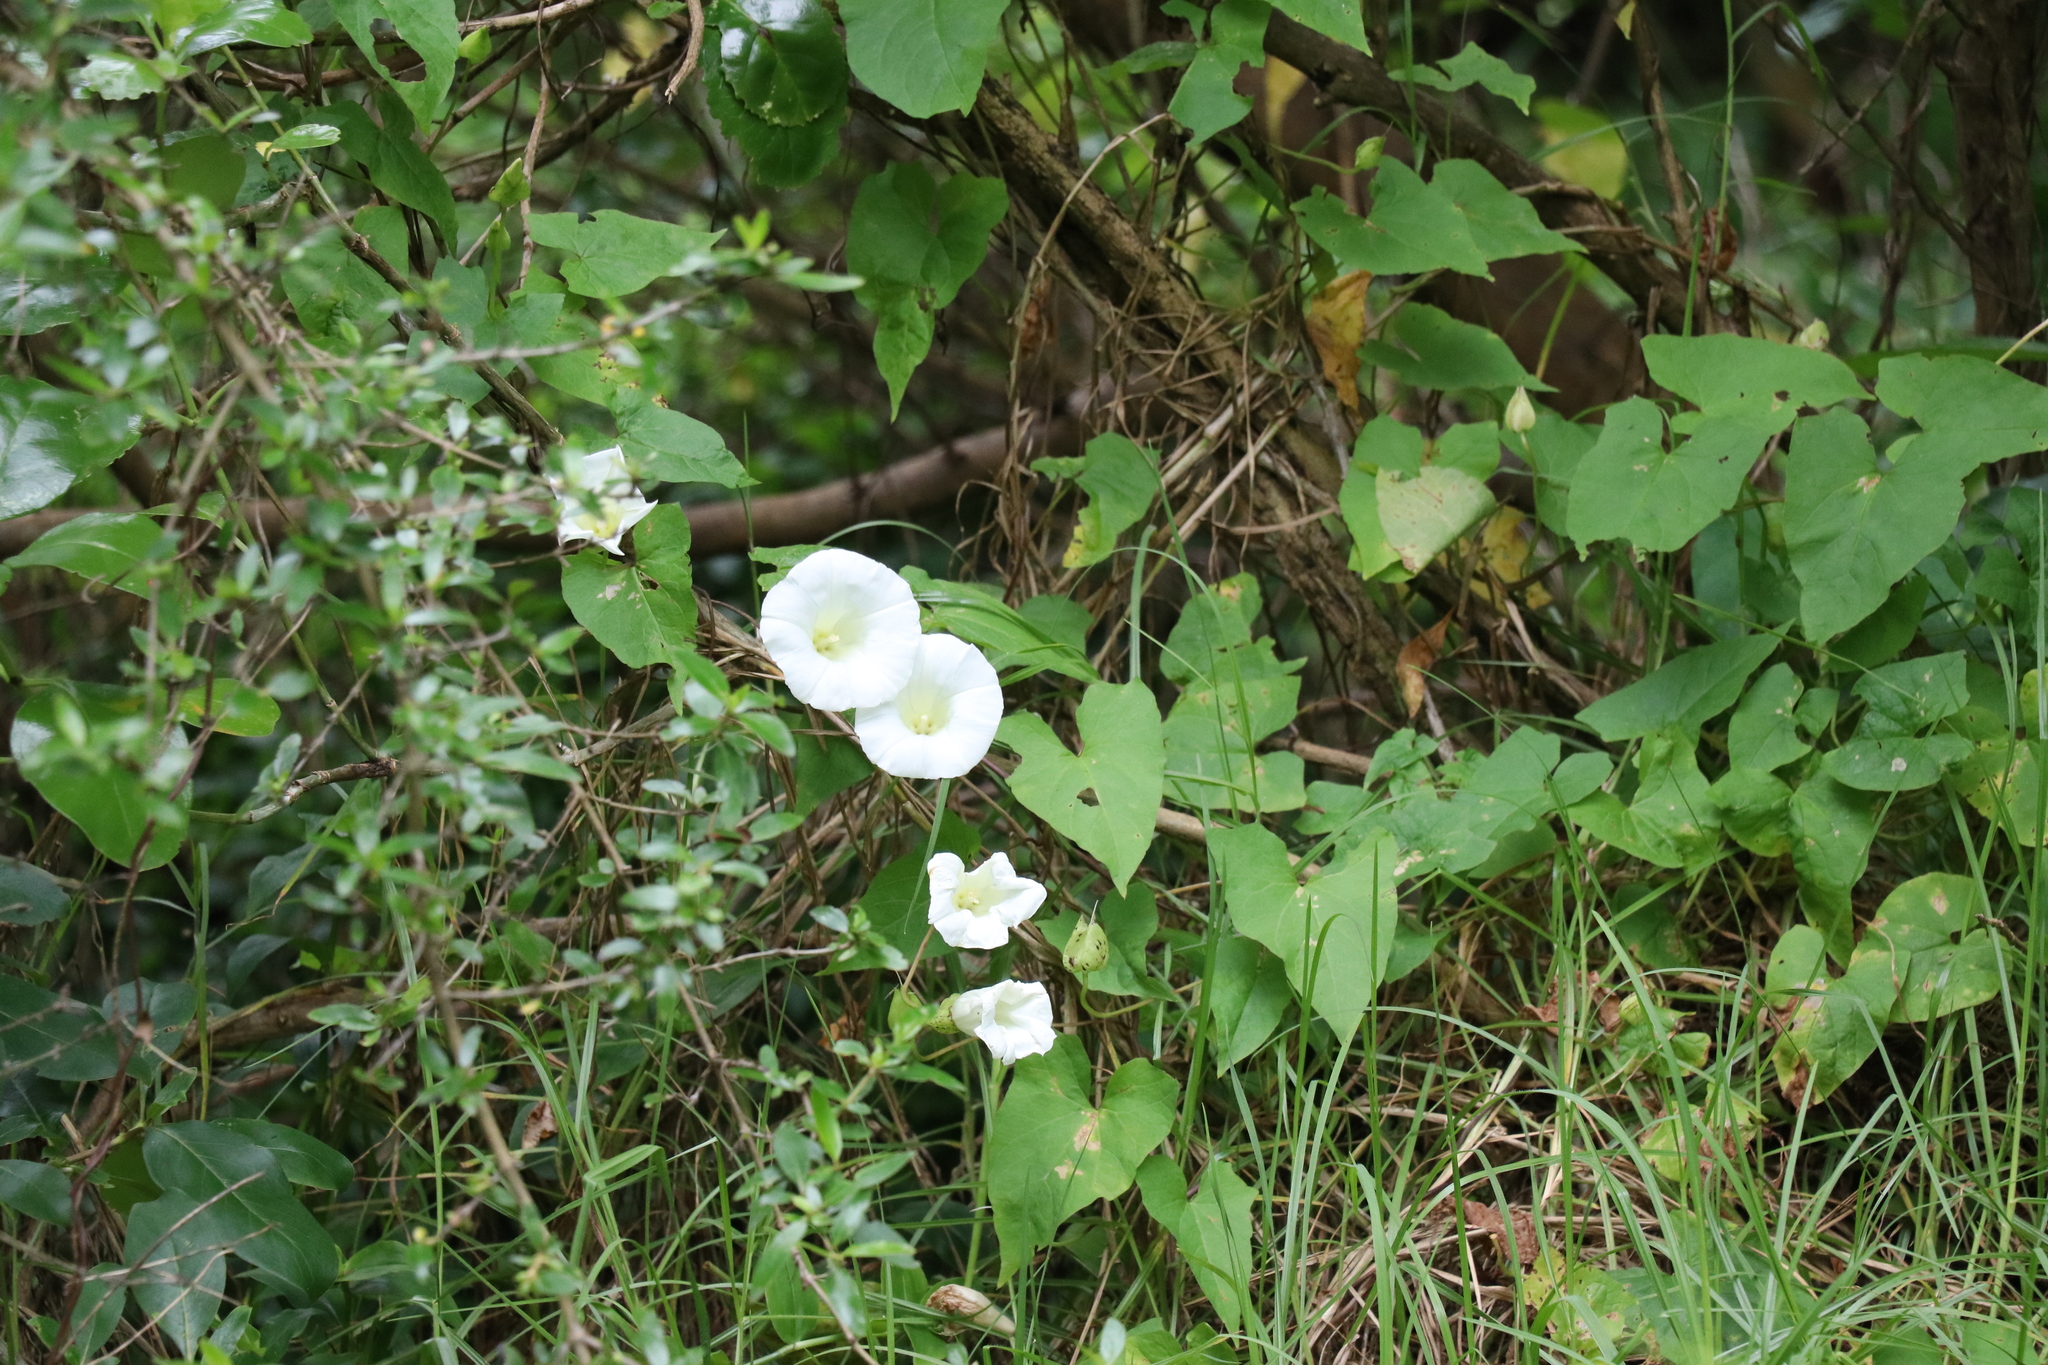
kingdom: Plantae
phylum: Tracheophyta
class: Magnoliopsida
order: Solanales
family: Convolvulaceae
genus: Calystegia
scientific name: Calystegia silvatica
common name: Large bindweed
